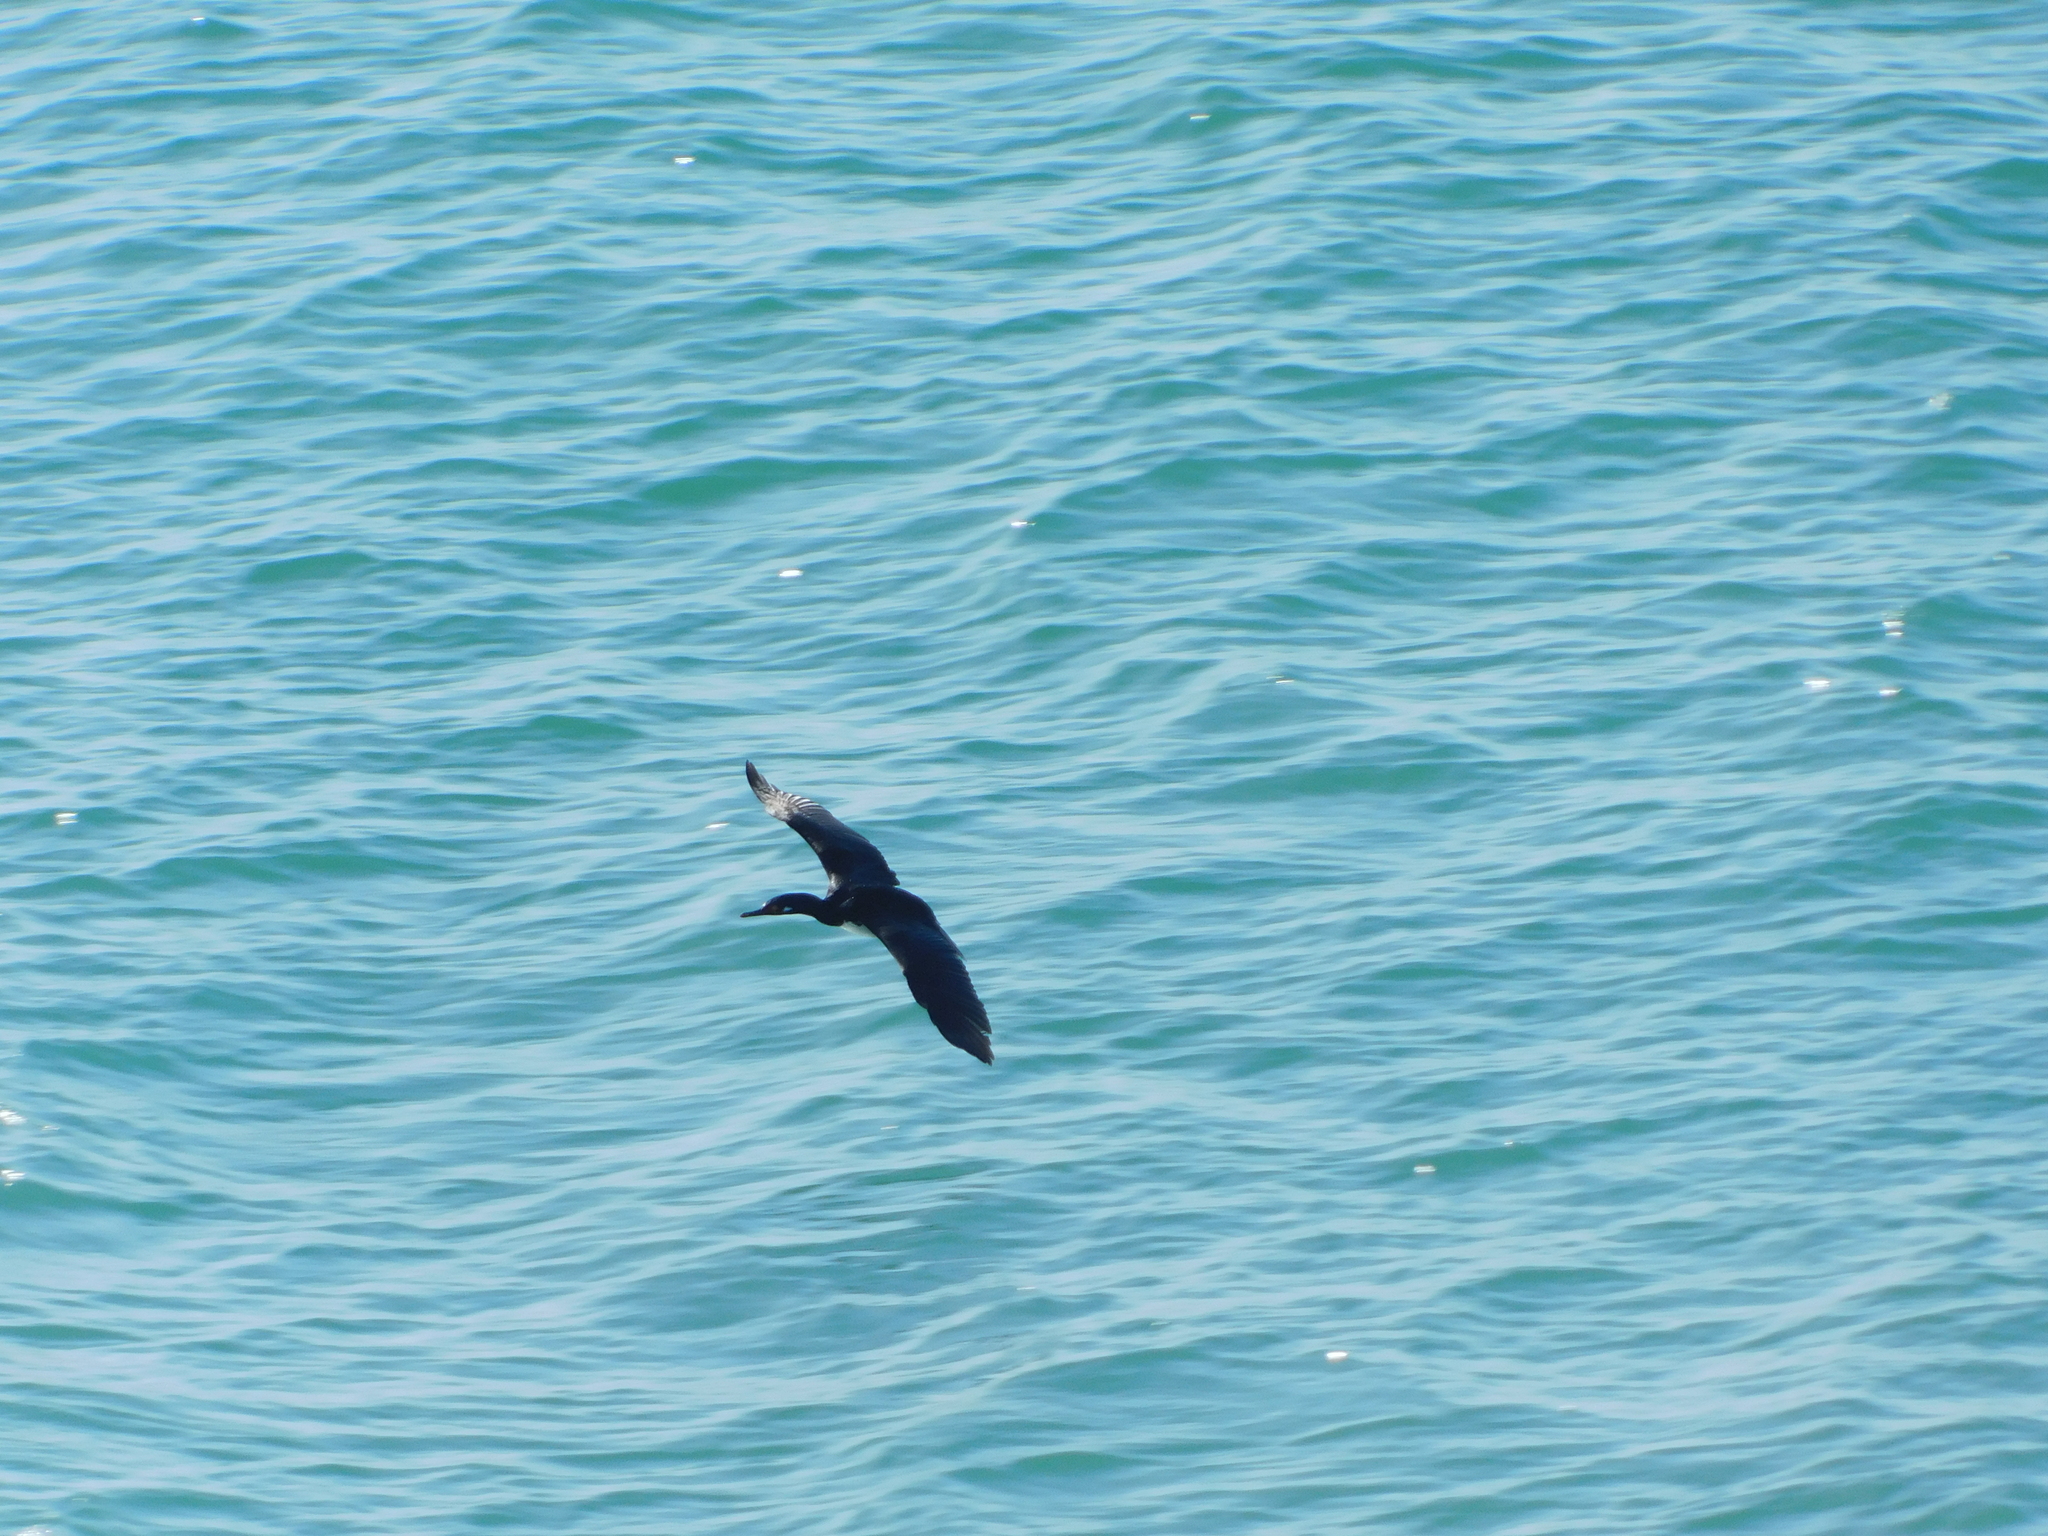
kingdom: Animalia
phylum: Chordata
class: Aves
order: Suliformes
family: Phalacrocoracidae
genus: Phalacrocorax
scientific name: Phalacrocorax magellanicus
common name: Rock shag
